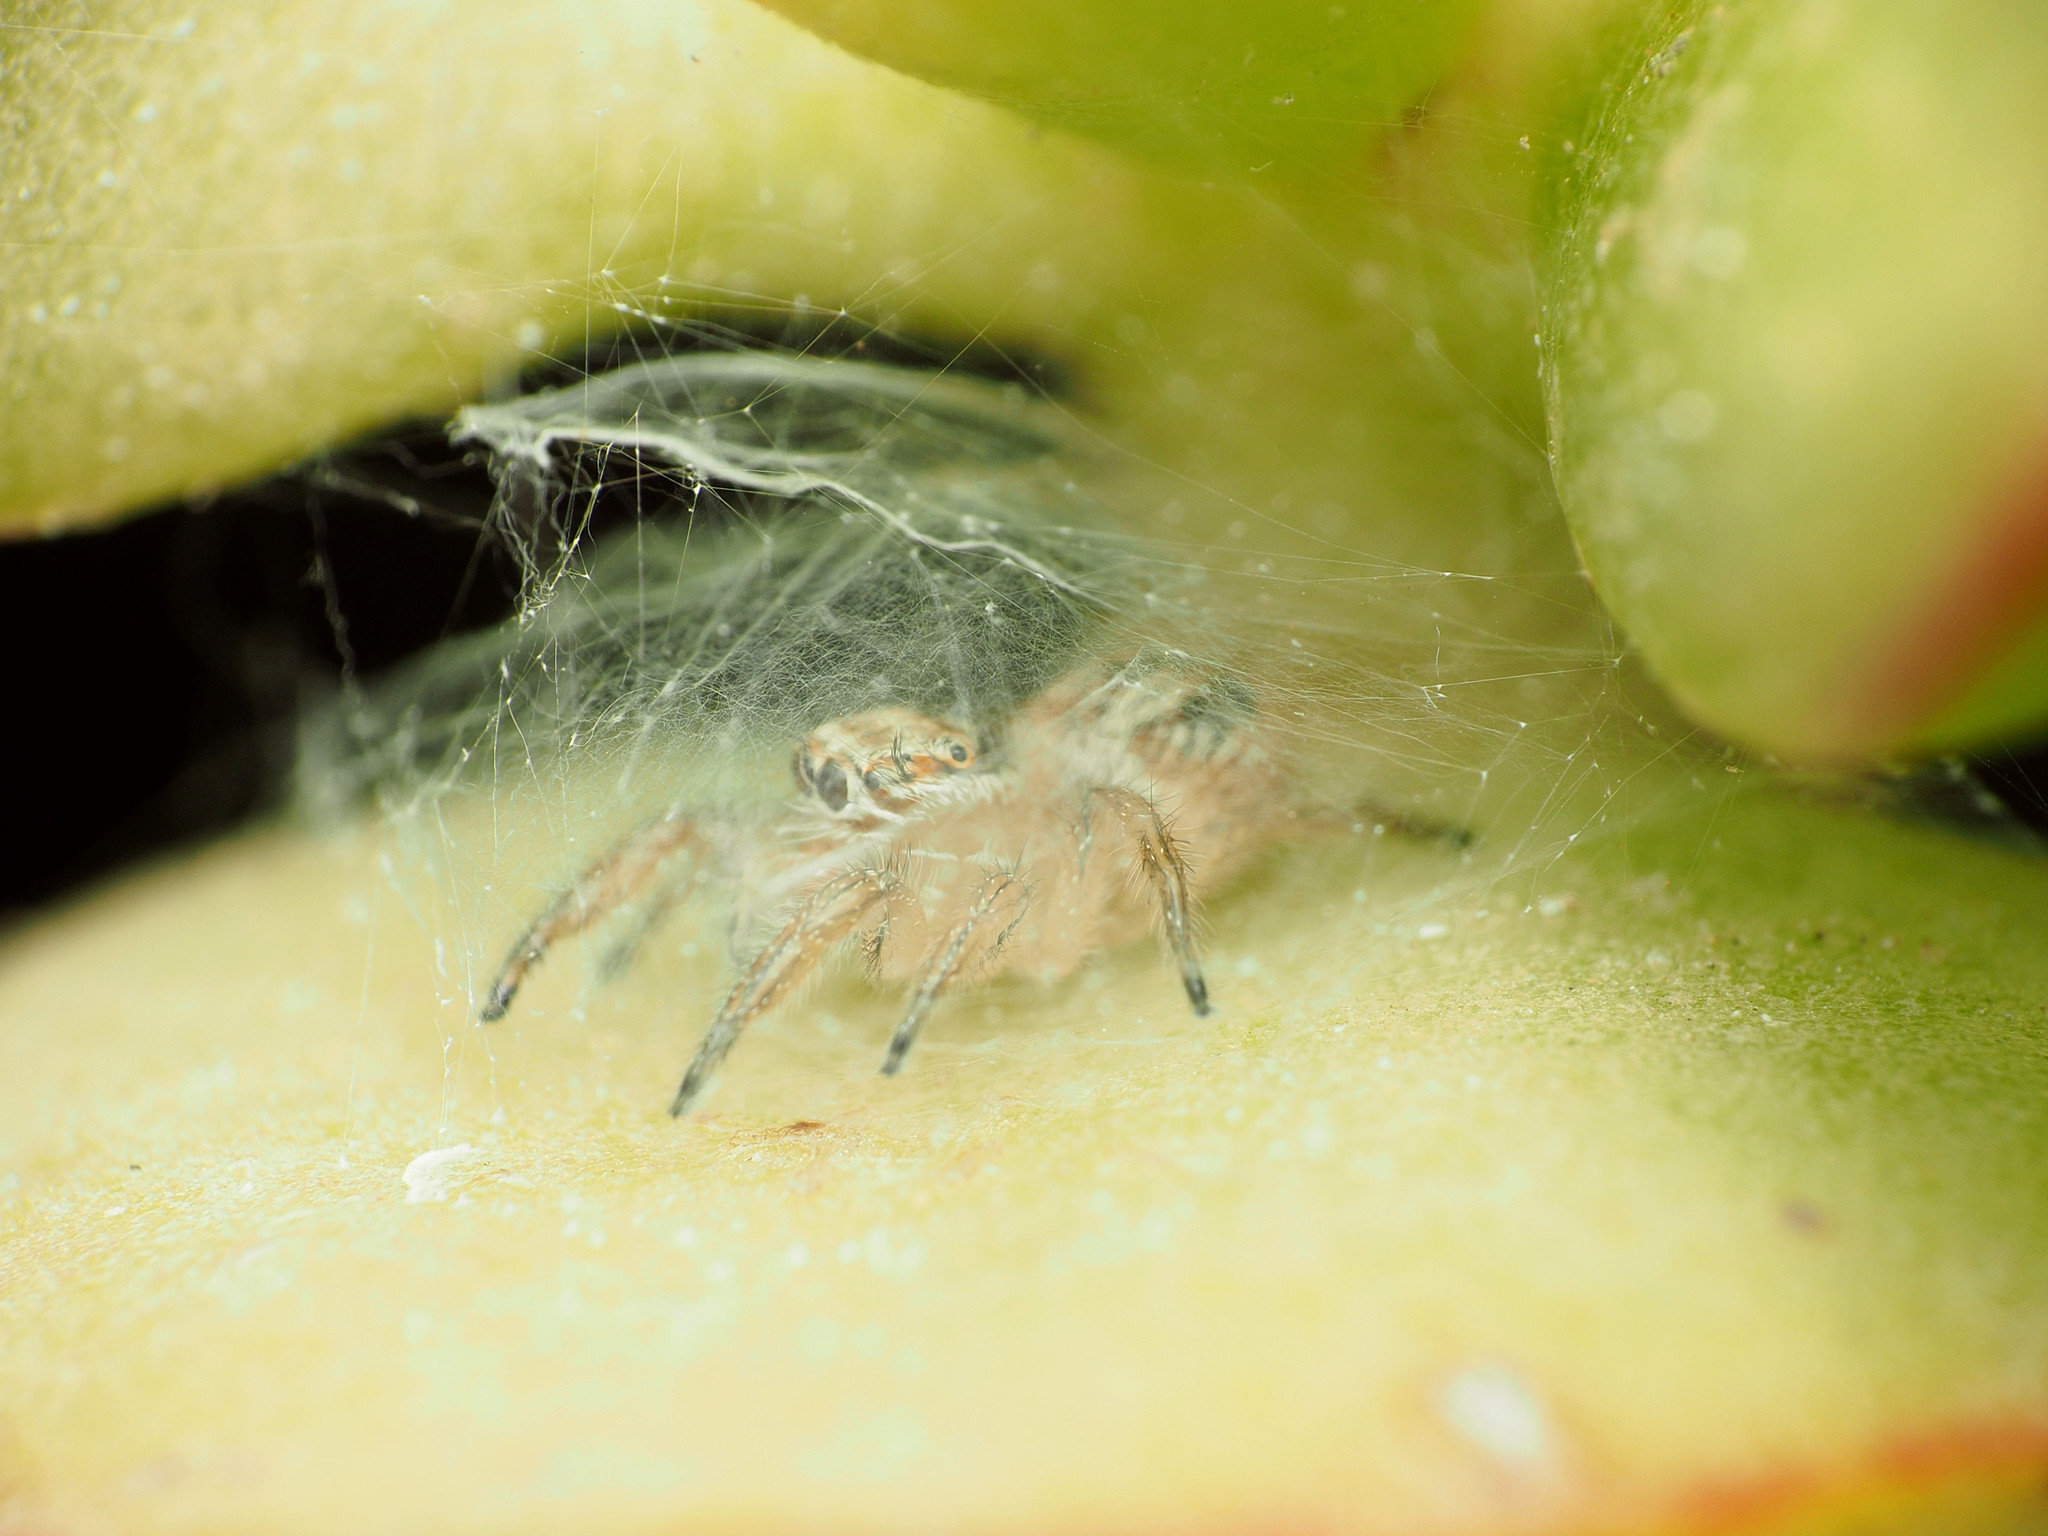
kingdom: Animalia
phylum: Arthropoda
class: Arachnida
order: Araneae
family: Salticidae
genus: Thyene
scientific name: Thyene imperialis
